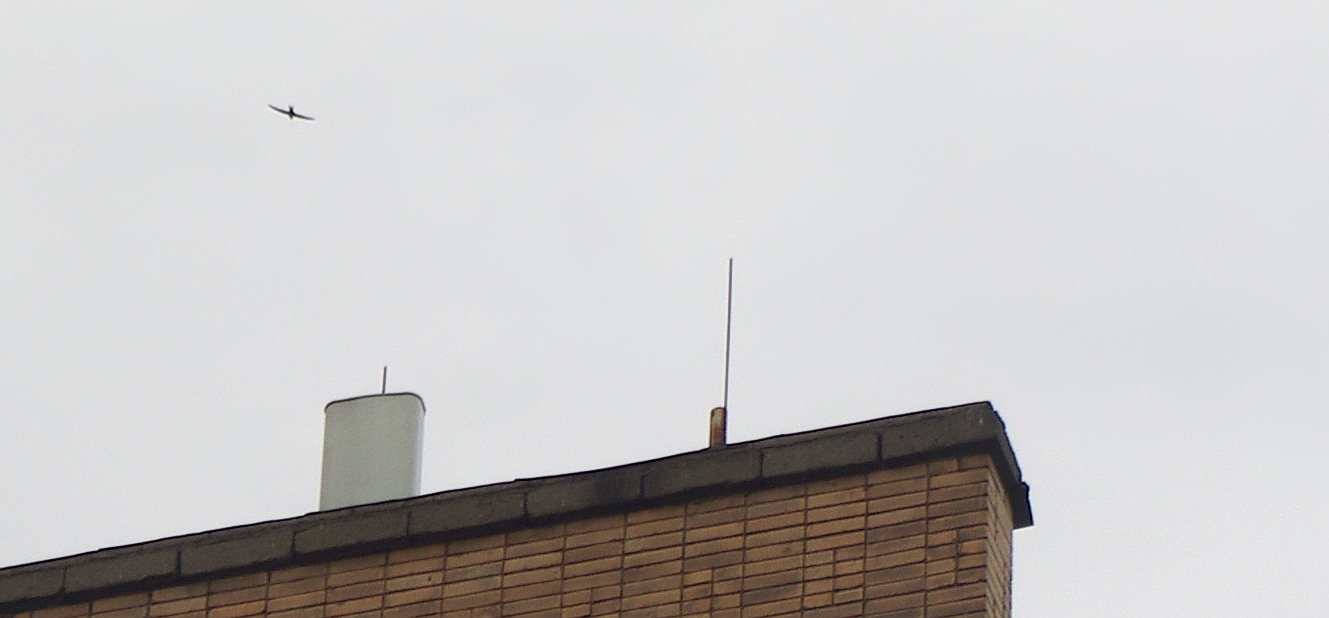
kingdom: Animalia
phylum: Chordata
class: Aves
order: Apodiformes
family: Apodidae
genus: Apus
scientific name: Apus apus
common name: Common swift
